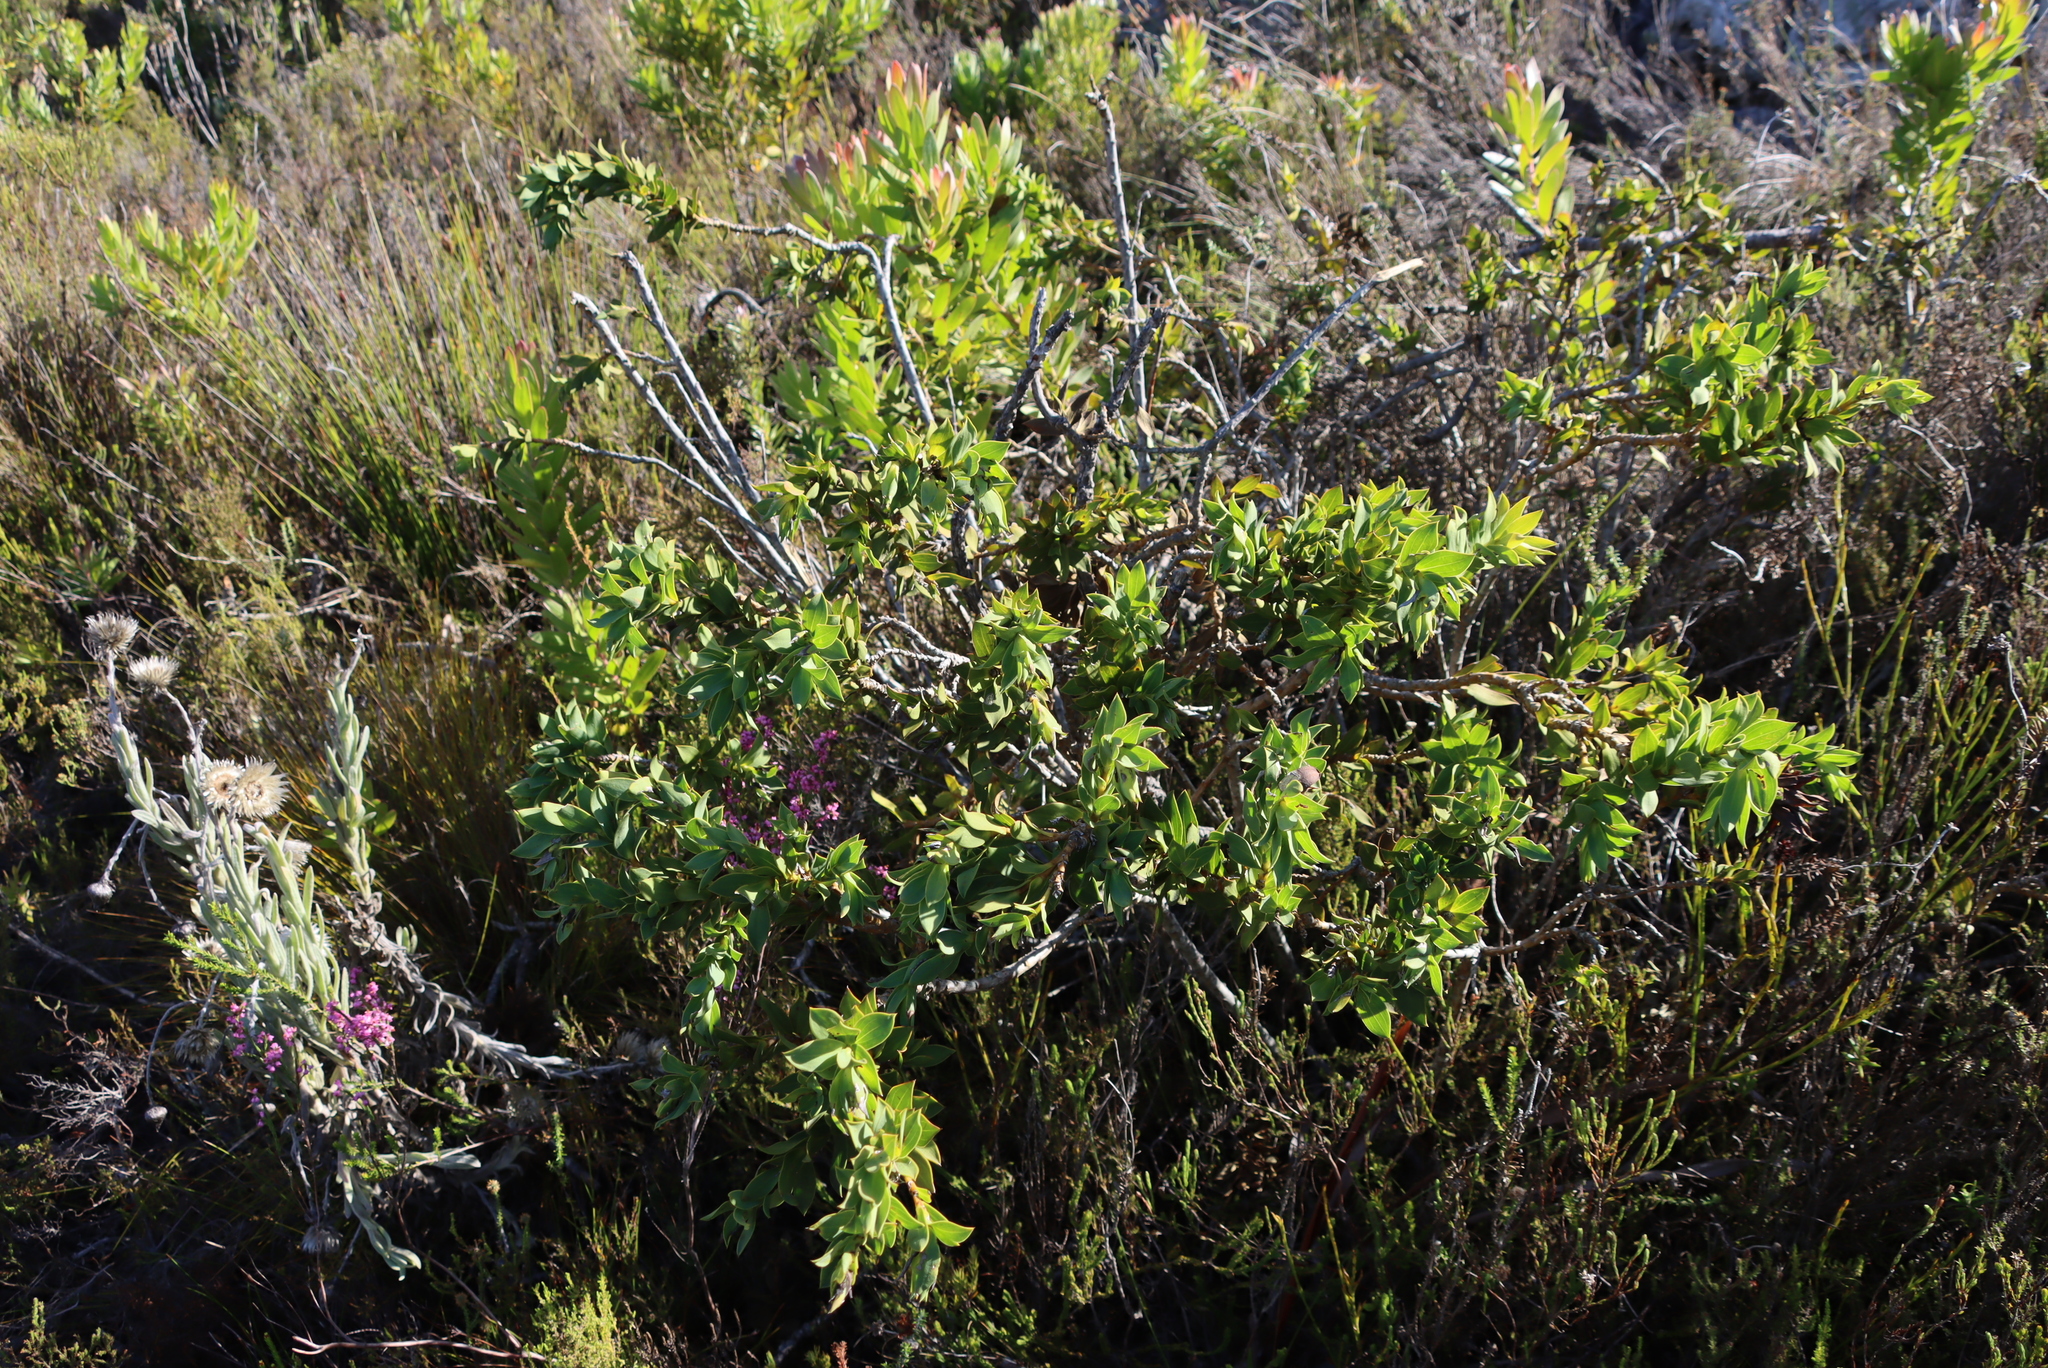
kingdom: Plantae
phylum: Tracheophyta
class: Magnoliopsida
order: Fabales
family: Fabaceae
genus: Liparia
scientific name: Liparia splendens
